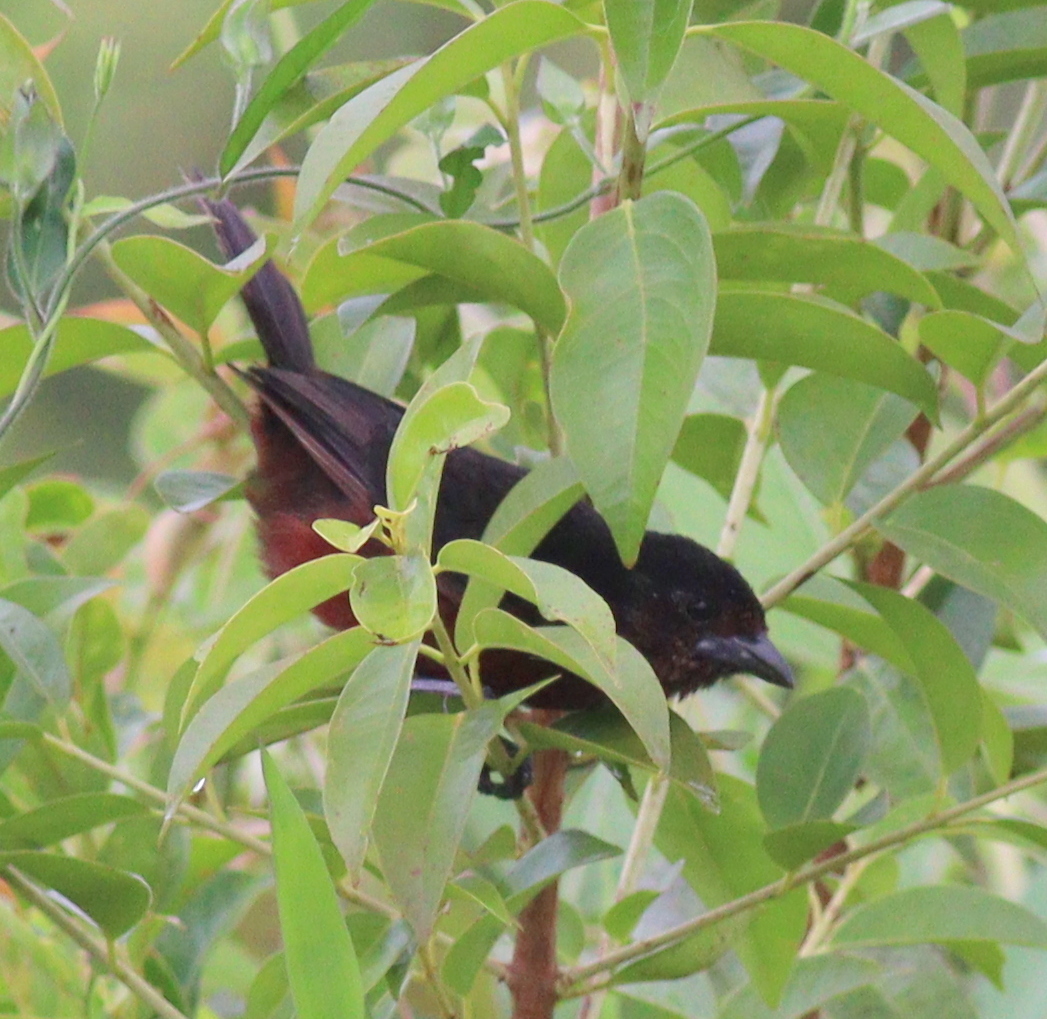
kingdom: Animalia
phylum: Chordata
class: Aves
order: Passeriformes
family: Thraupidae
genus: Ramphocelus
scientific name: Ramphocelus carbo
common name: Silver-beaked tanager
